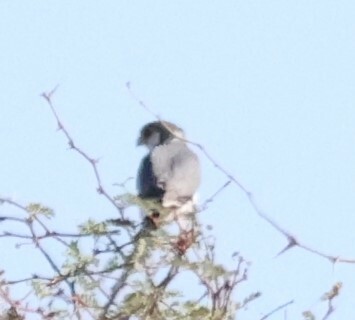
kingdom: Animalia
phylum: Chordata
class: Aves
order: Falconiformes
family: Falconidae
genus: Polihierax
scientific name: Polihierax semitorquatus
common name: Pygmy falcon
